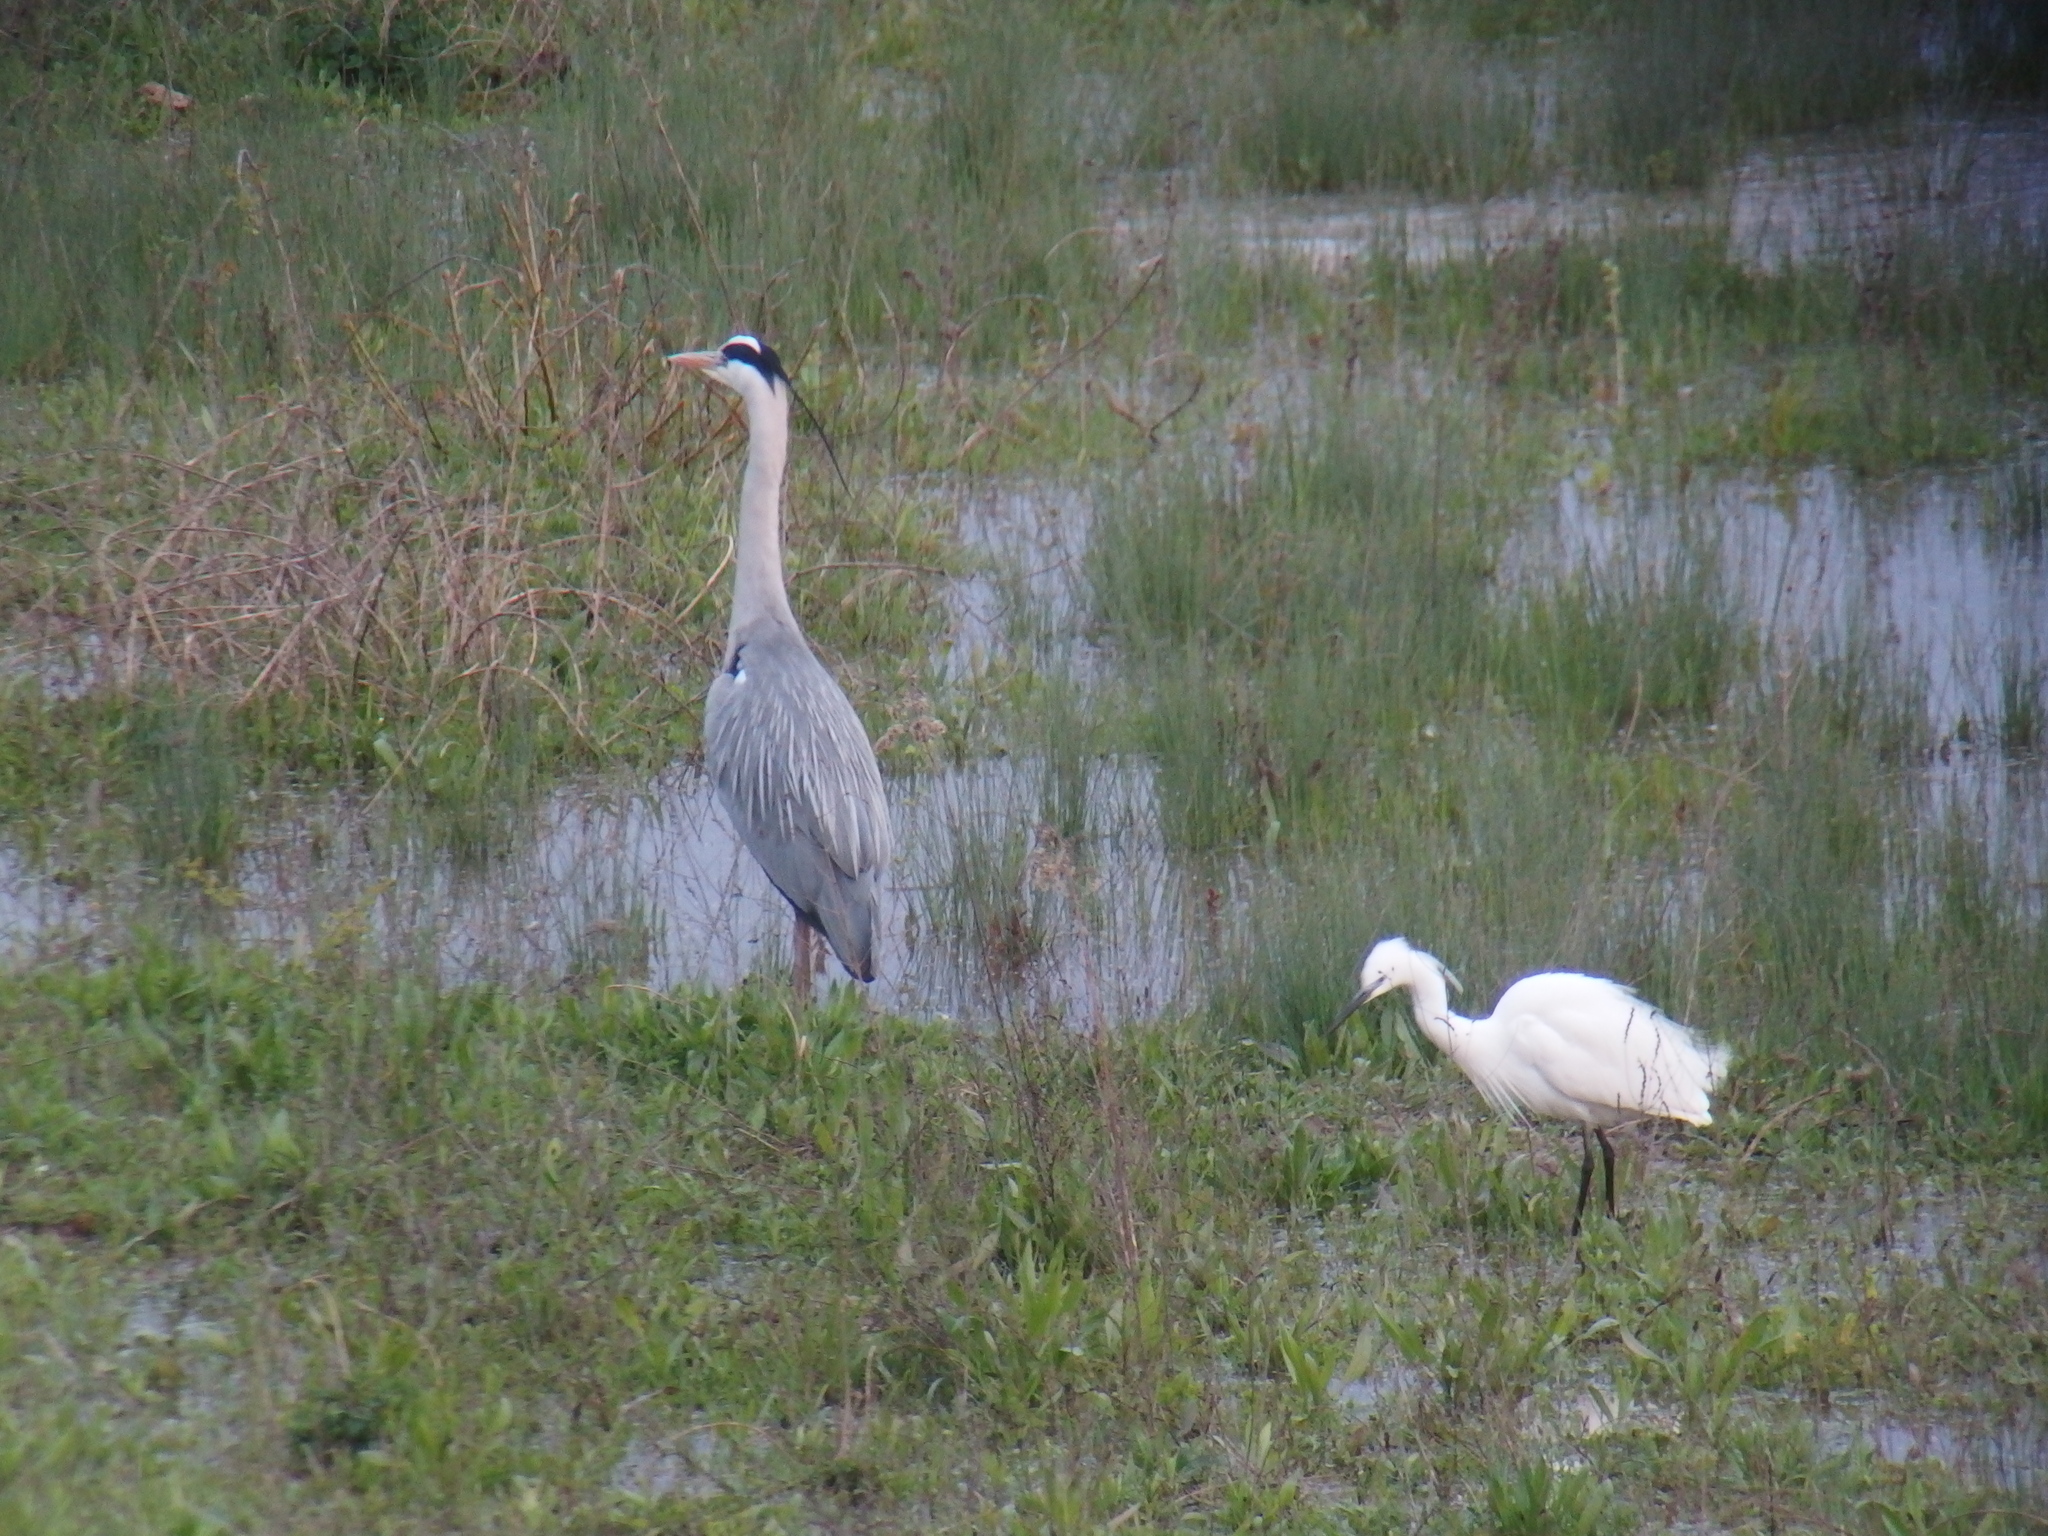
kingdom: Animalia
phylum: Chordata
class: Aves
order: Pelecaniformes
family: Ardeidae
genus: Ardea
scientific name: Ardea cinerea
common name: Grey heron
